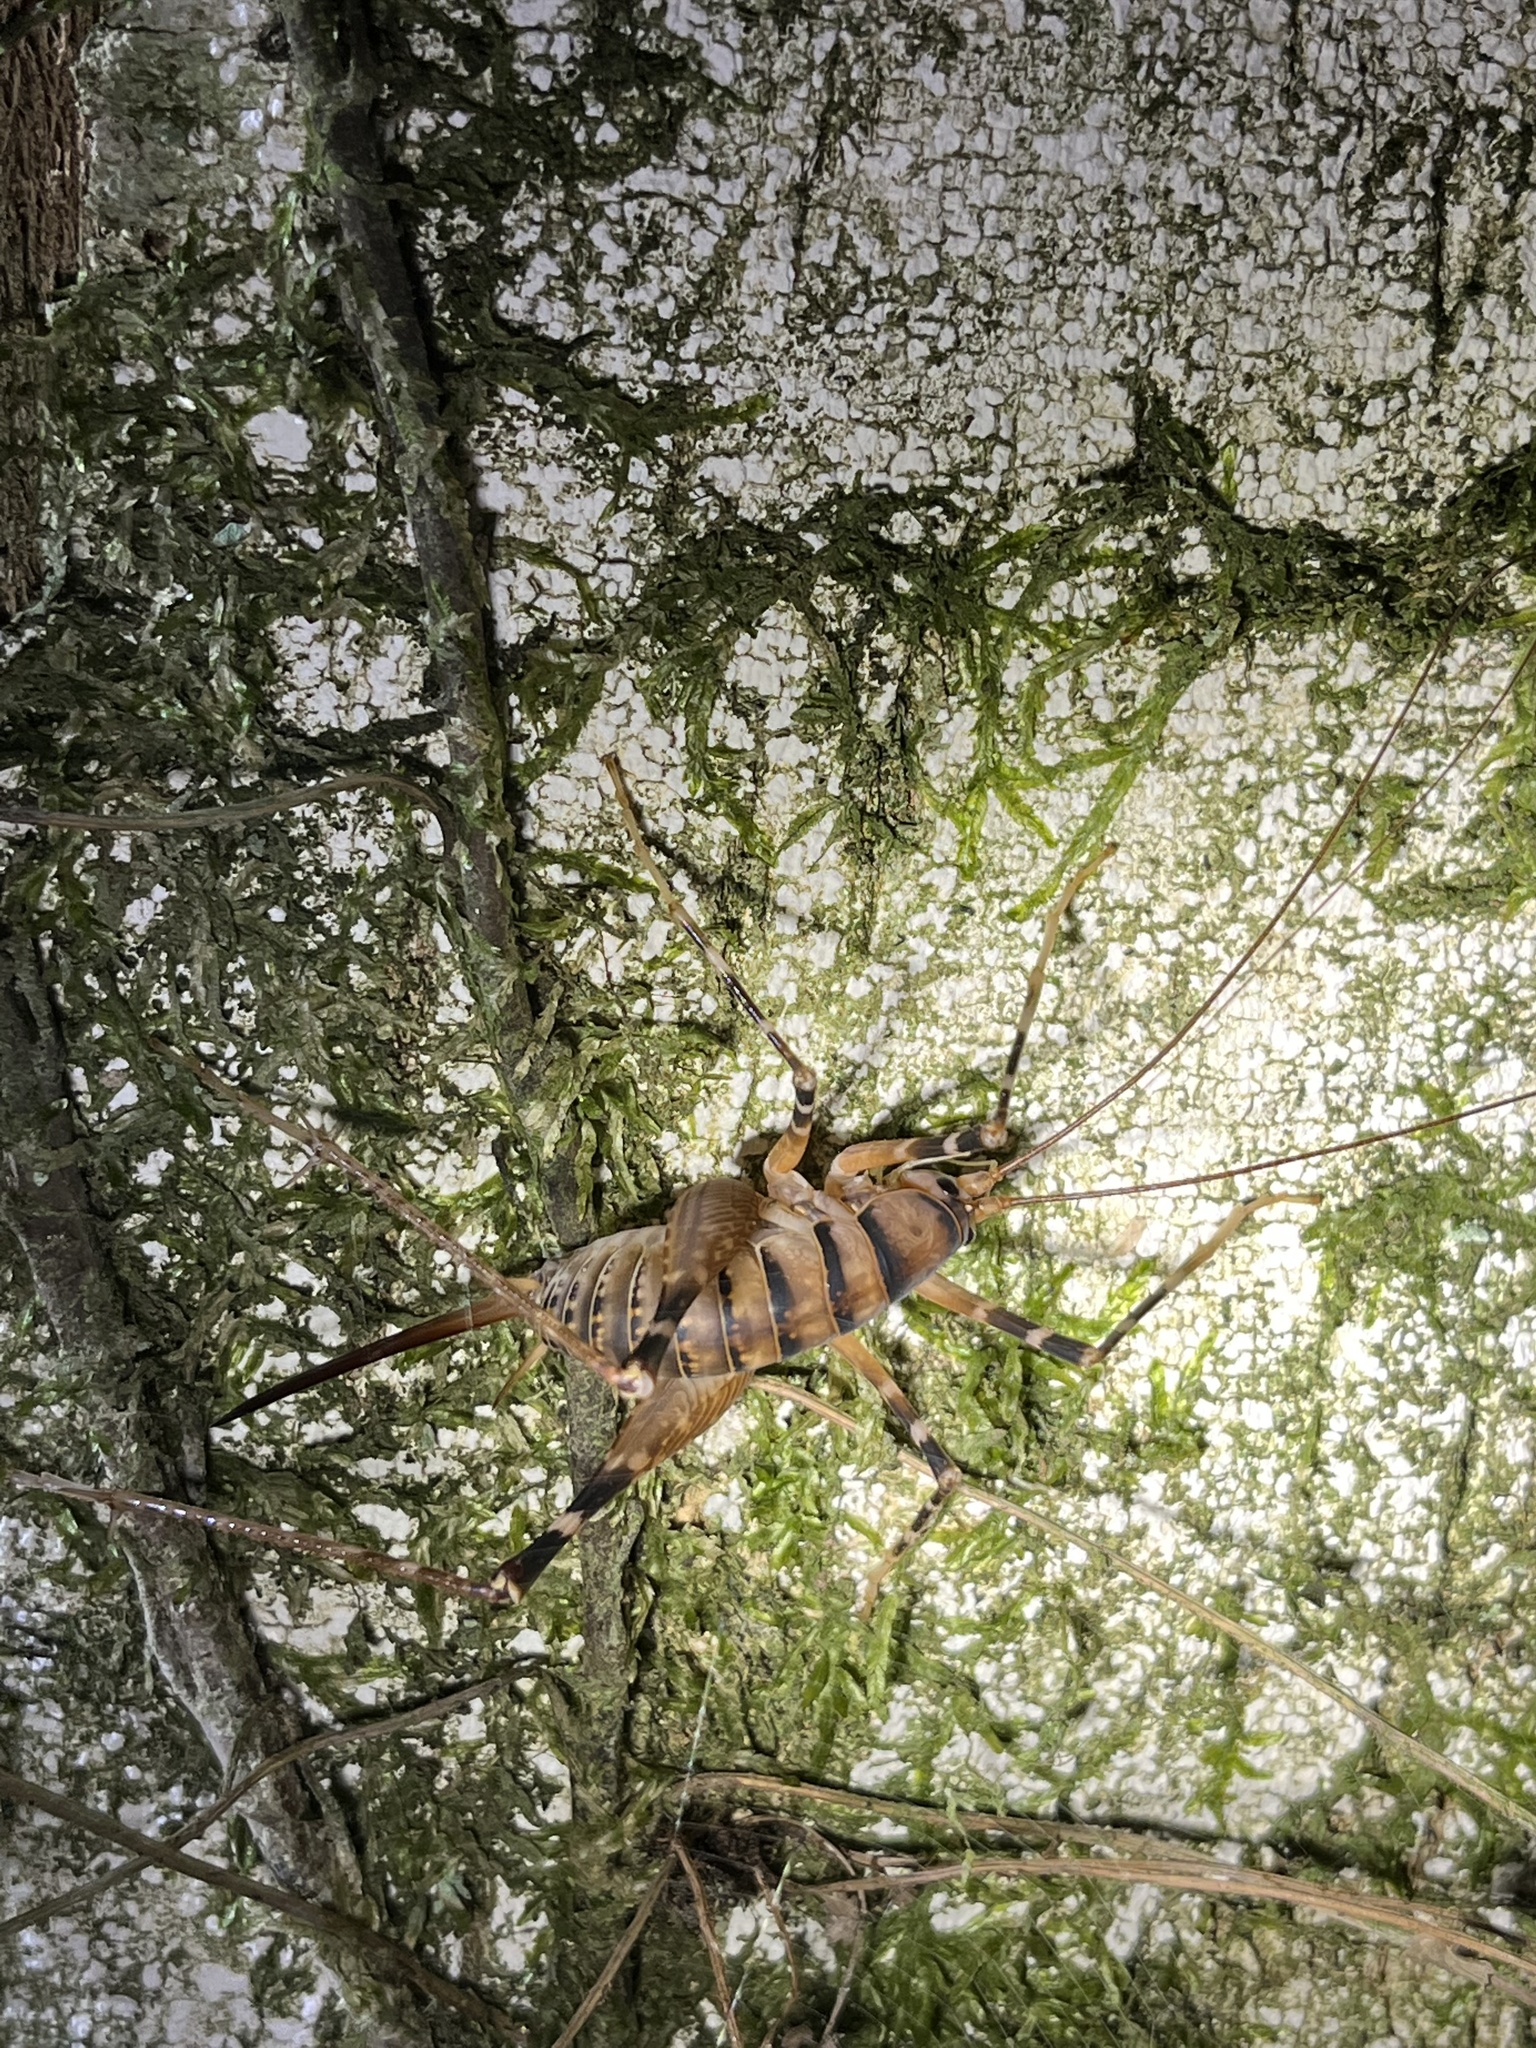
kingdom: Animalia
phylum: Arthropoda
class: Insecta
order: Orthoptera
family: Rhaphidophoridae
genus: Pachyrhamma
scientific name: Pachyrhamma edwardsii
